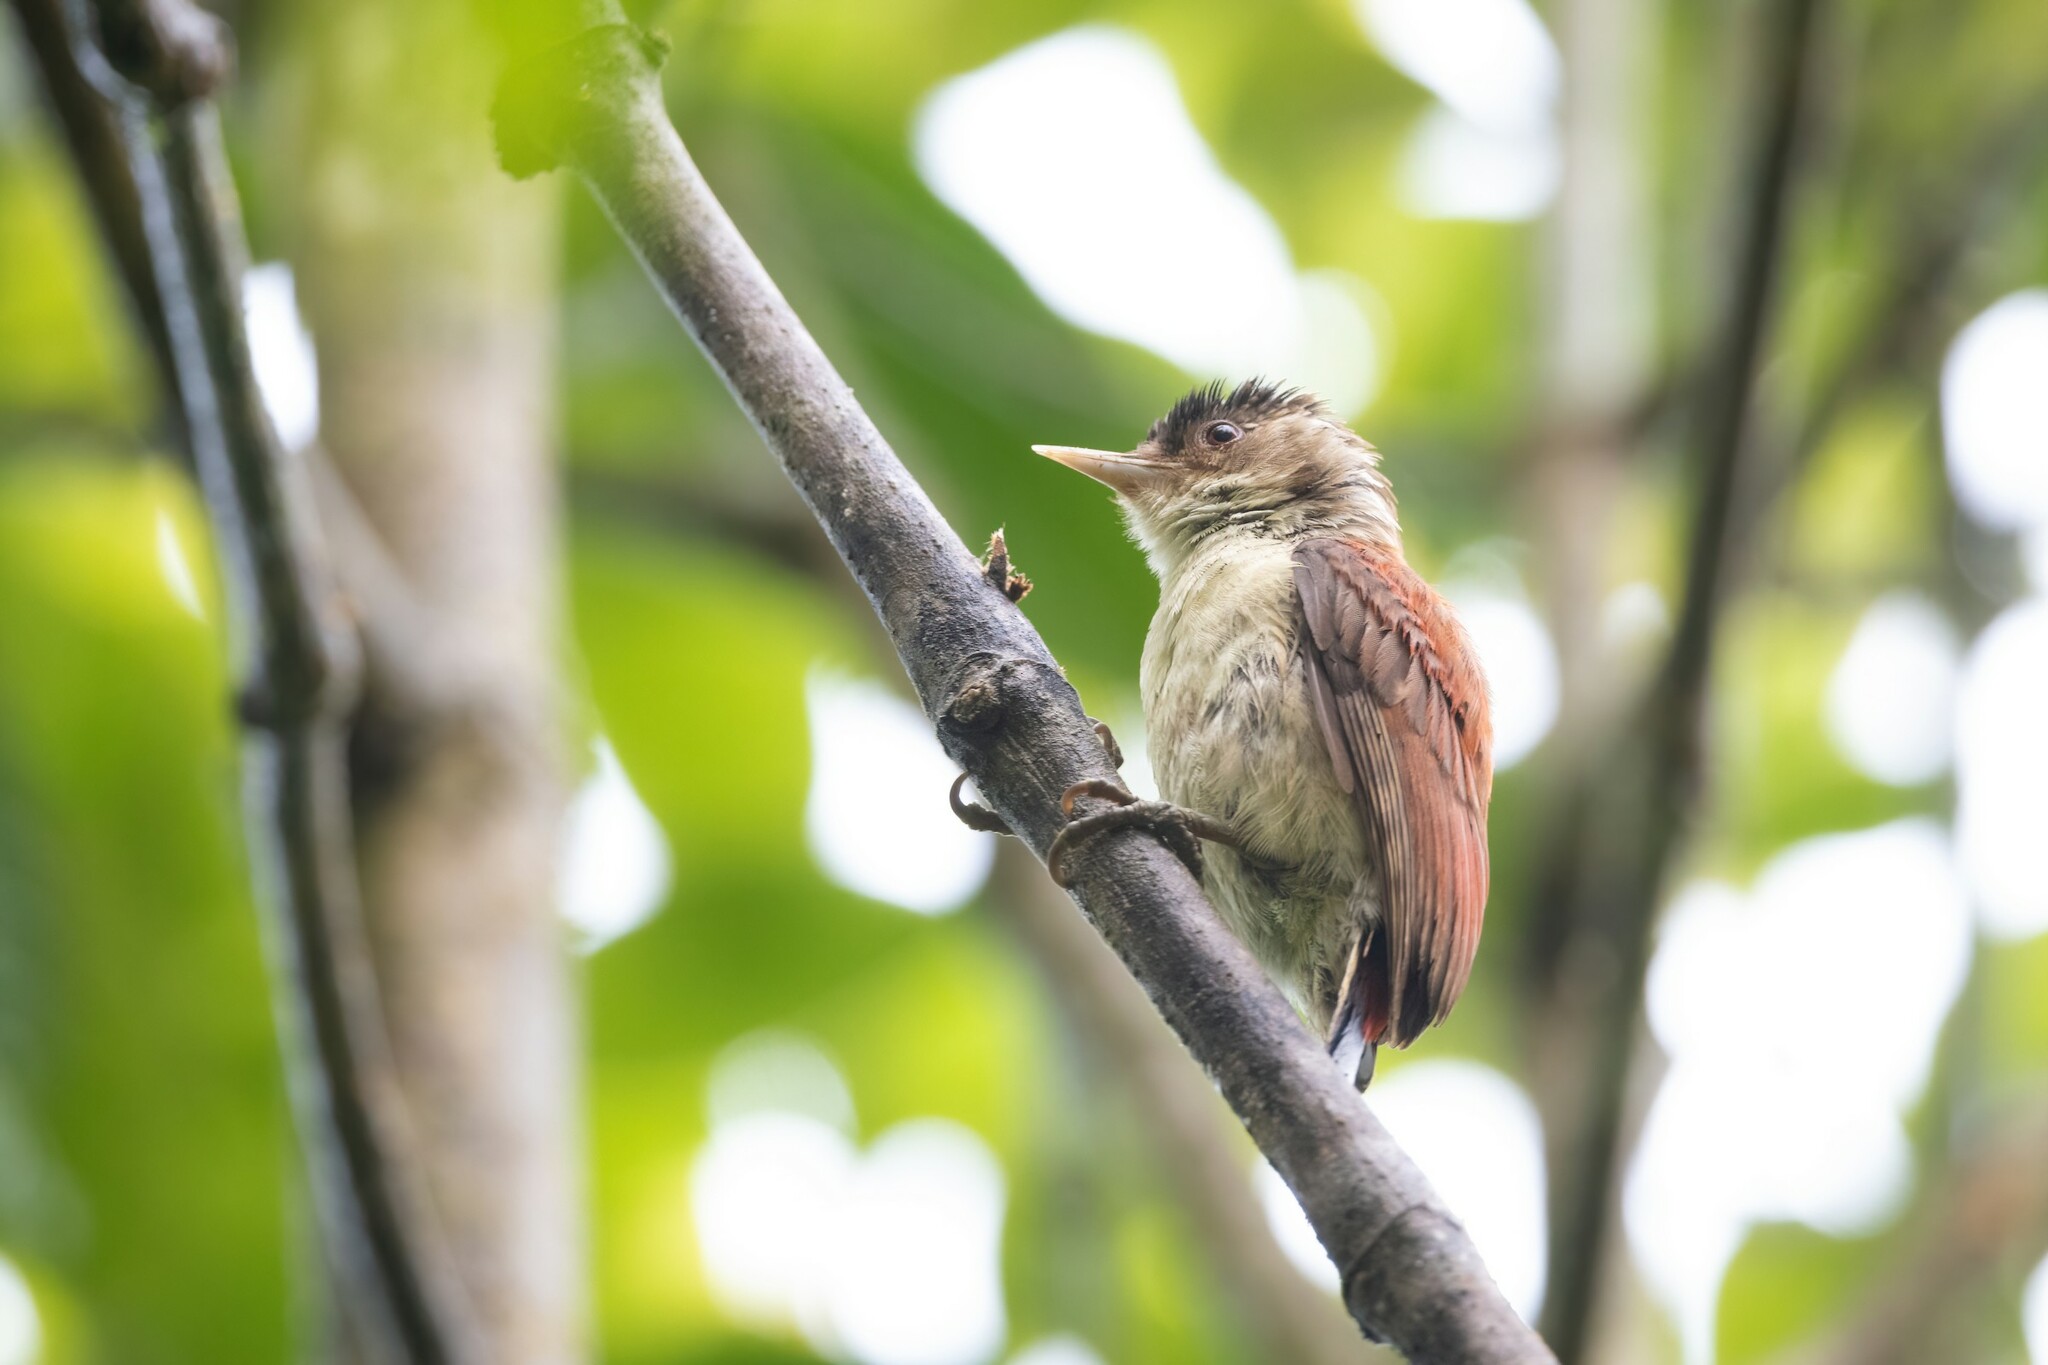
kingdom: Animalia
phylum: Chordata
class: Aves
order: Piciformes
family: Picidae
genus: Veniliornis
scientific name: Veniliornis callonotus
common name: Scarlet-backed woodpecker
